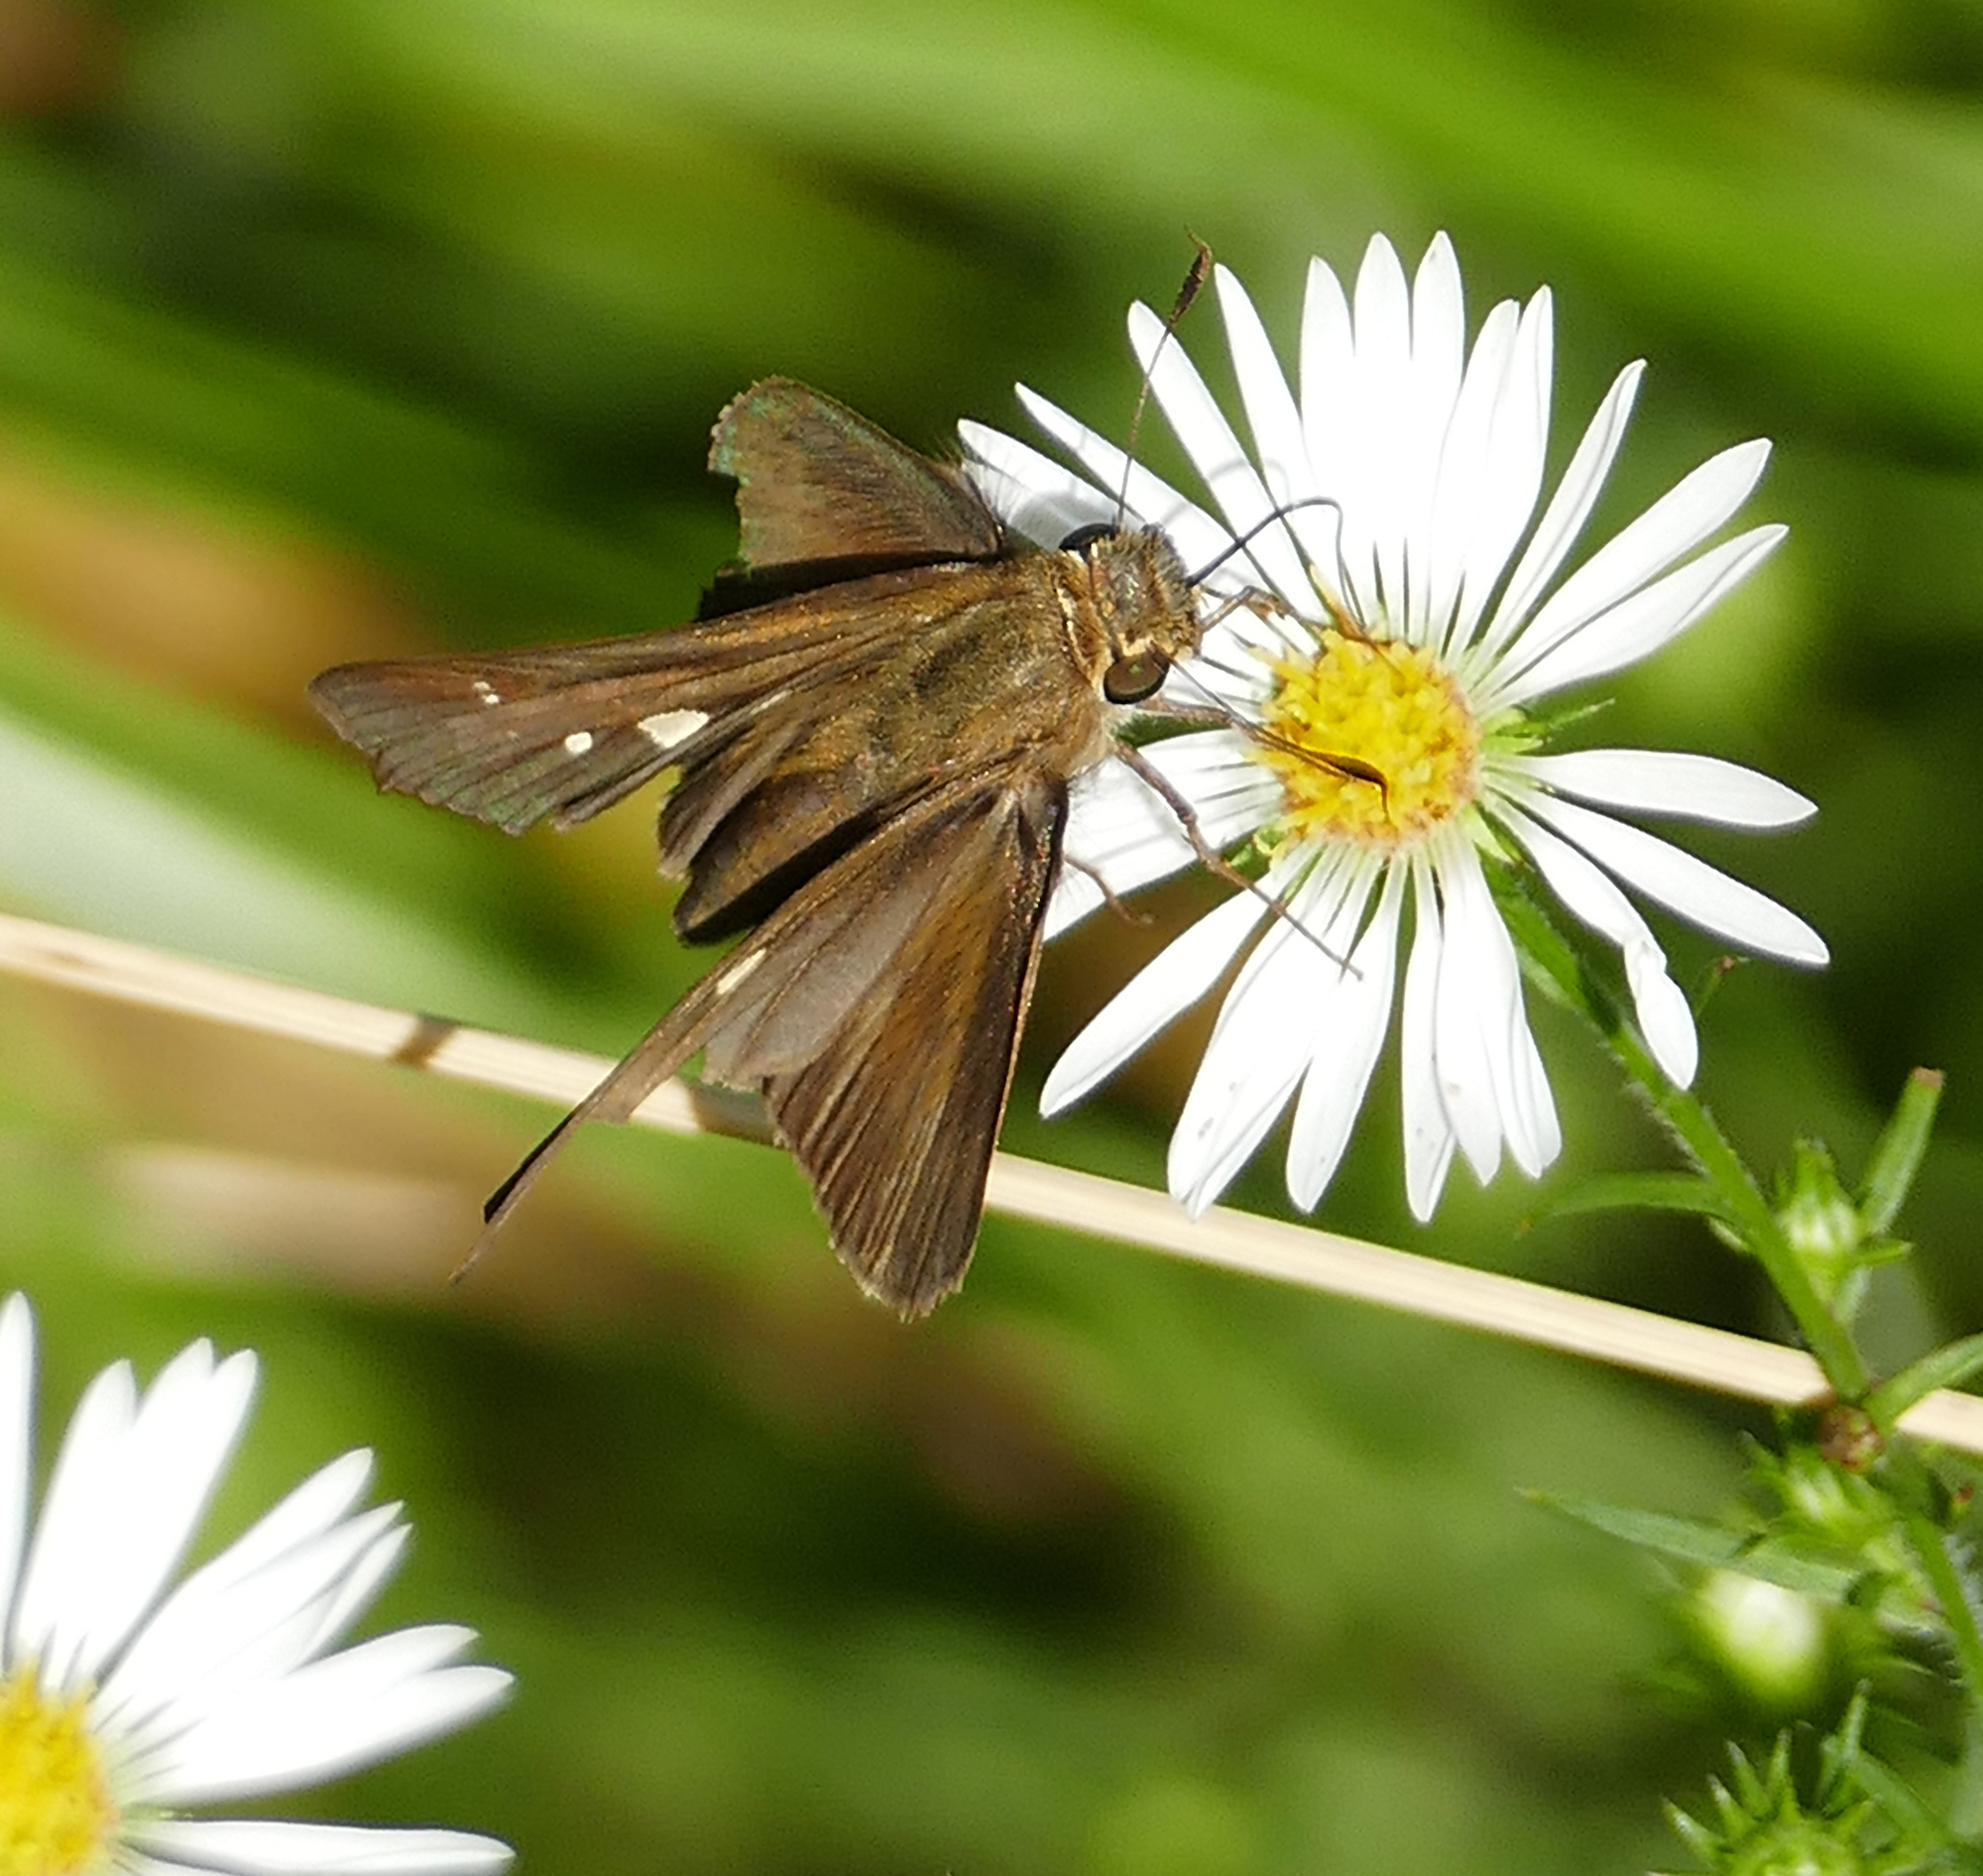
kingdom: Animalia
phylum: Arthropoda
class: Insecta
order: Lepidoptera
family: Hesperiidae
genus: Panoquina
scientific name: Panoquina ocola
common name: Ocola skipper
